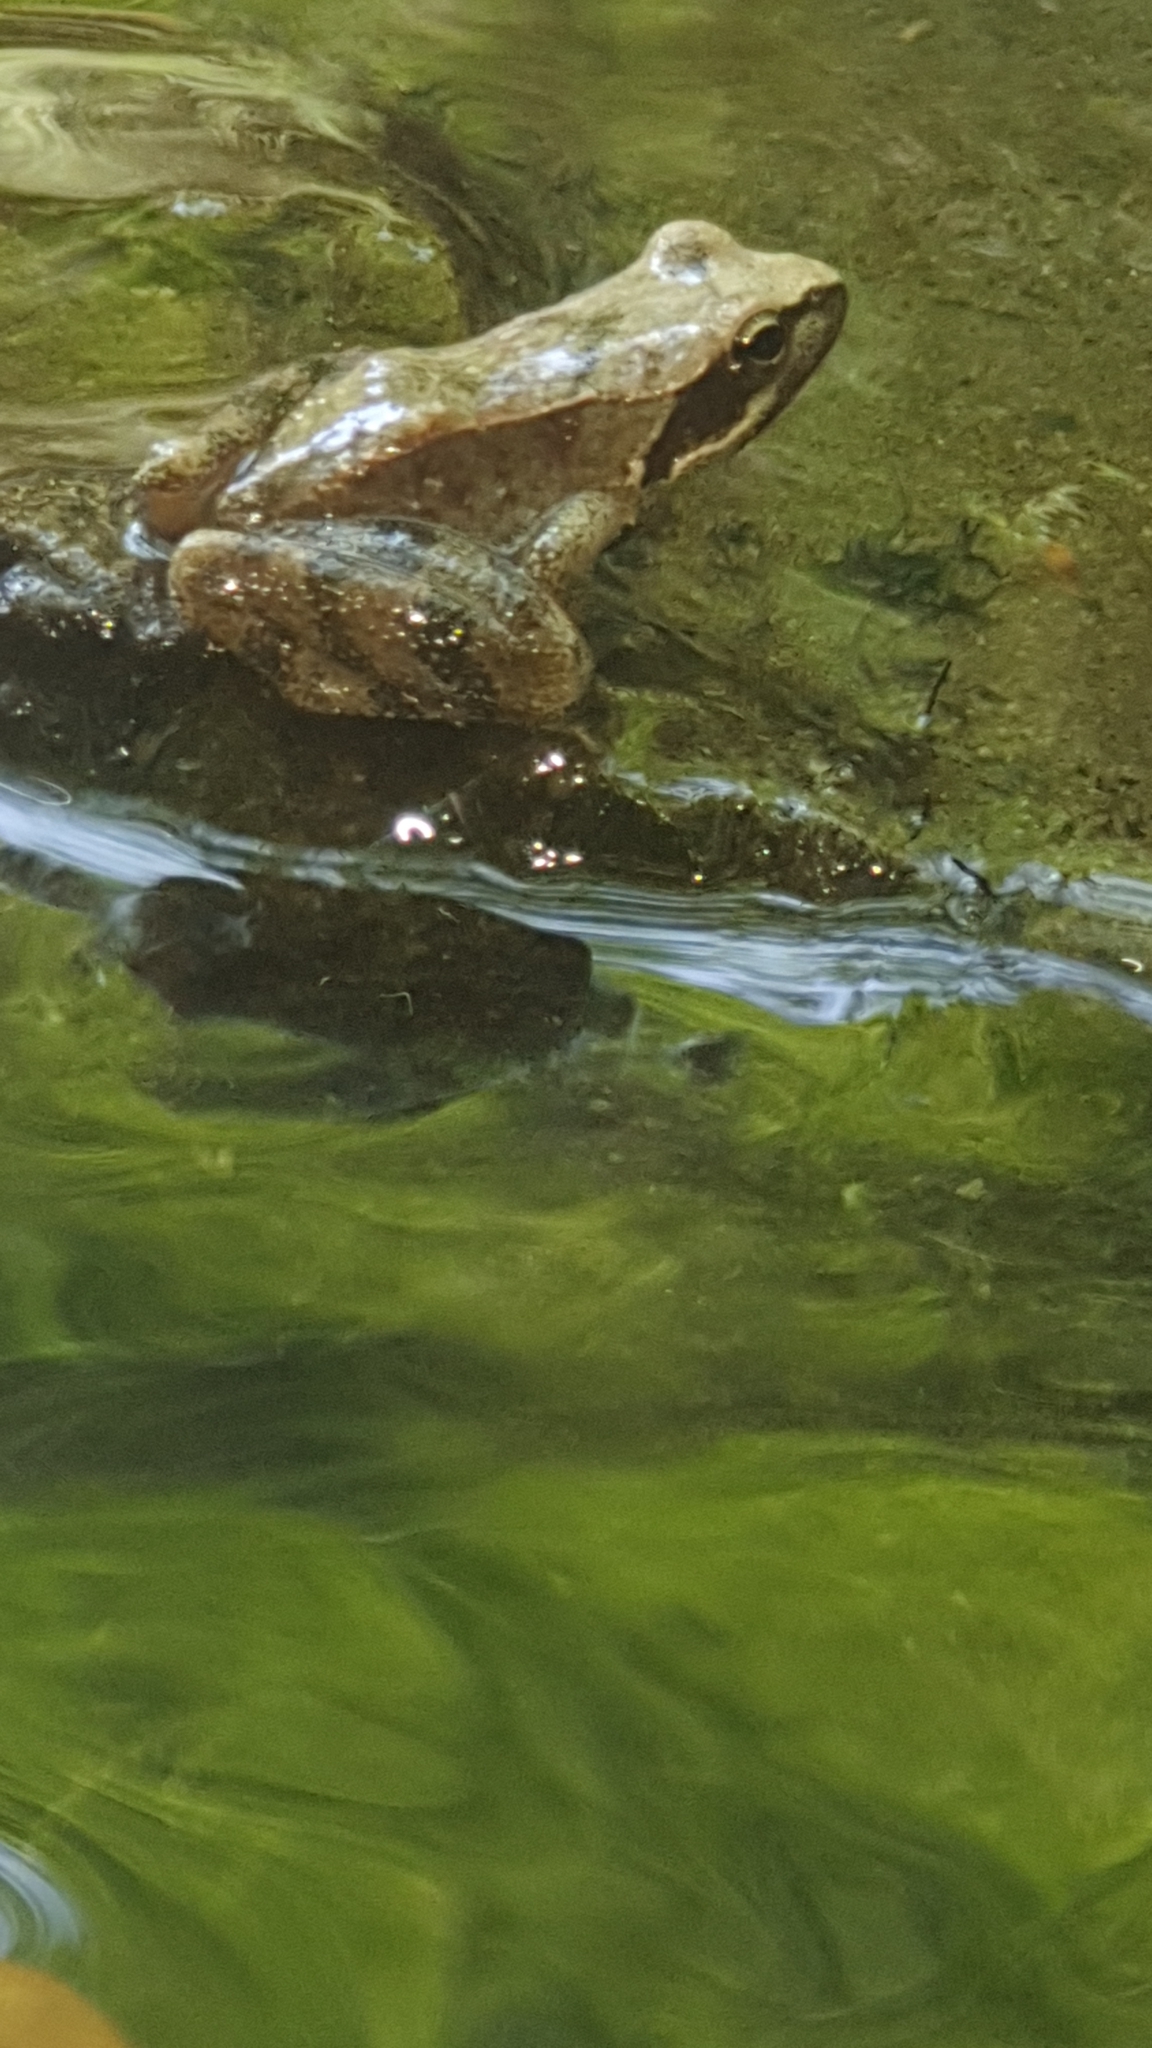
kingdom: Animalia
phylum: Chordata
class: Amphibia
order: Anura
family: Ranidae
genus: Rana
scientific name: Rana italica
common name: Italian stream frog
